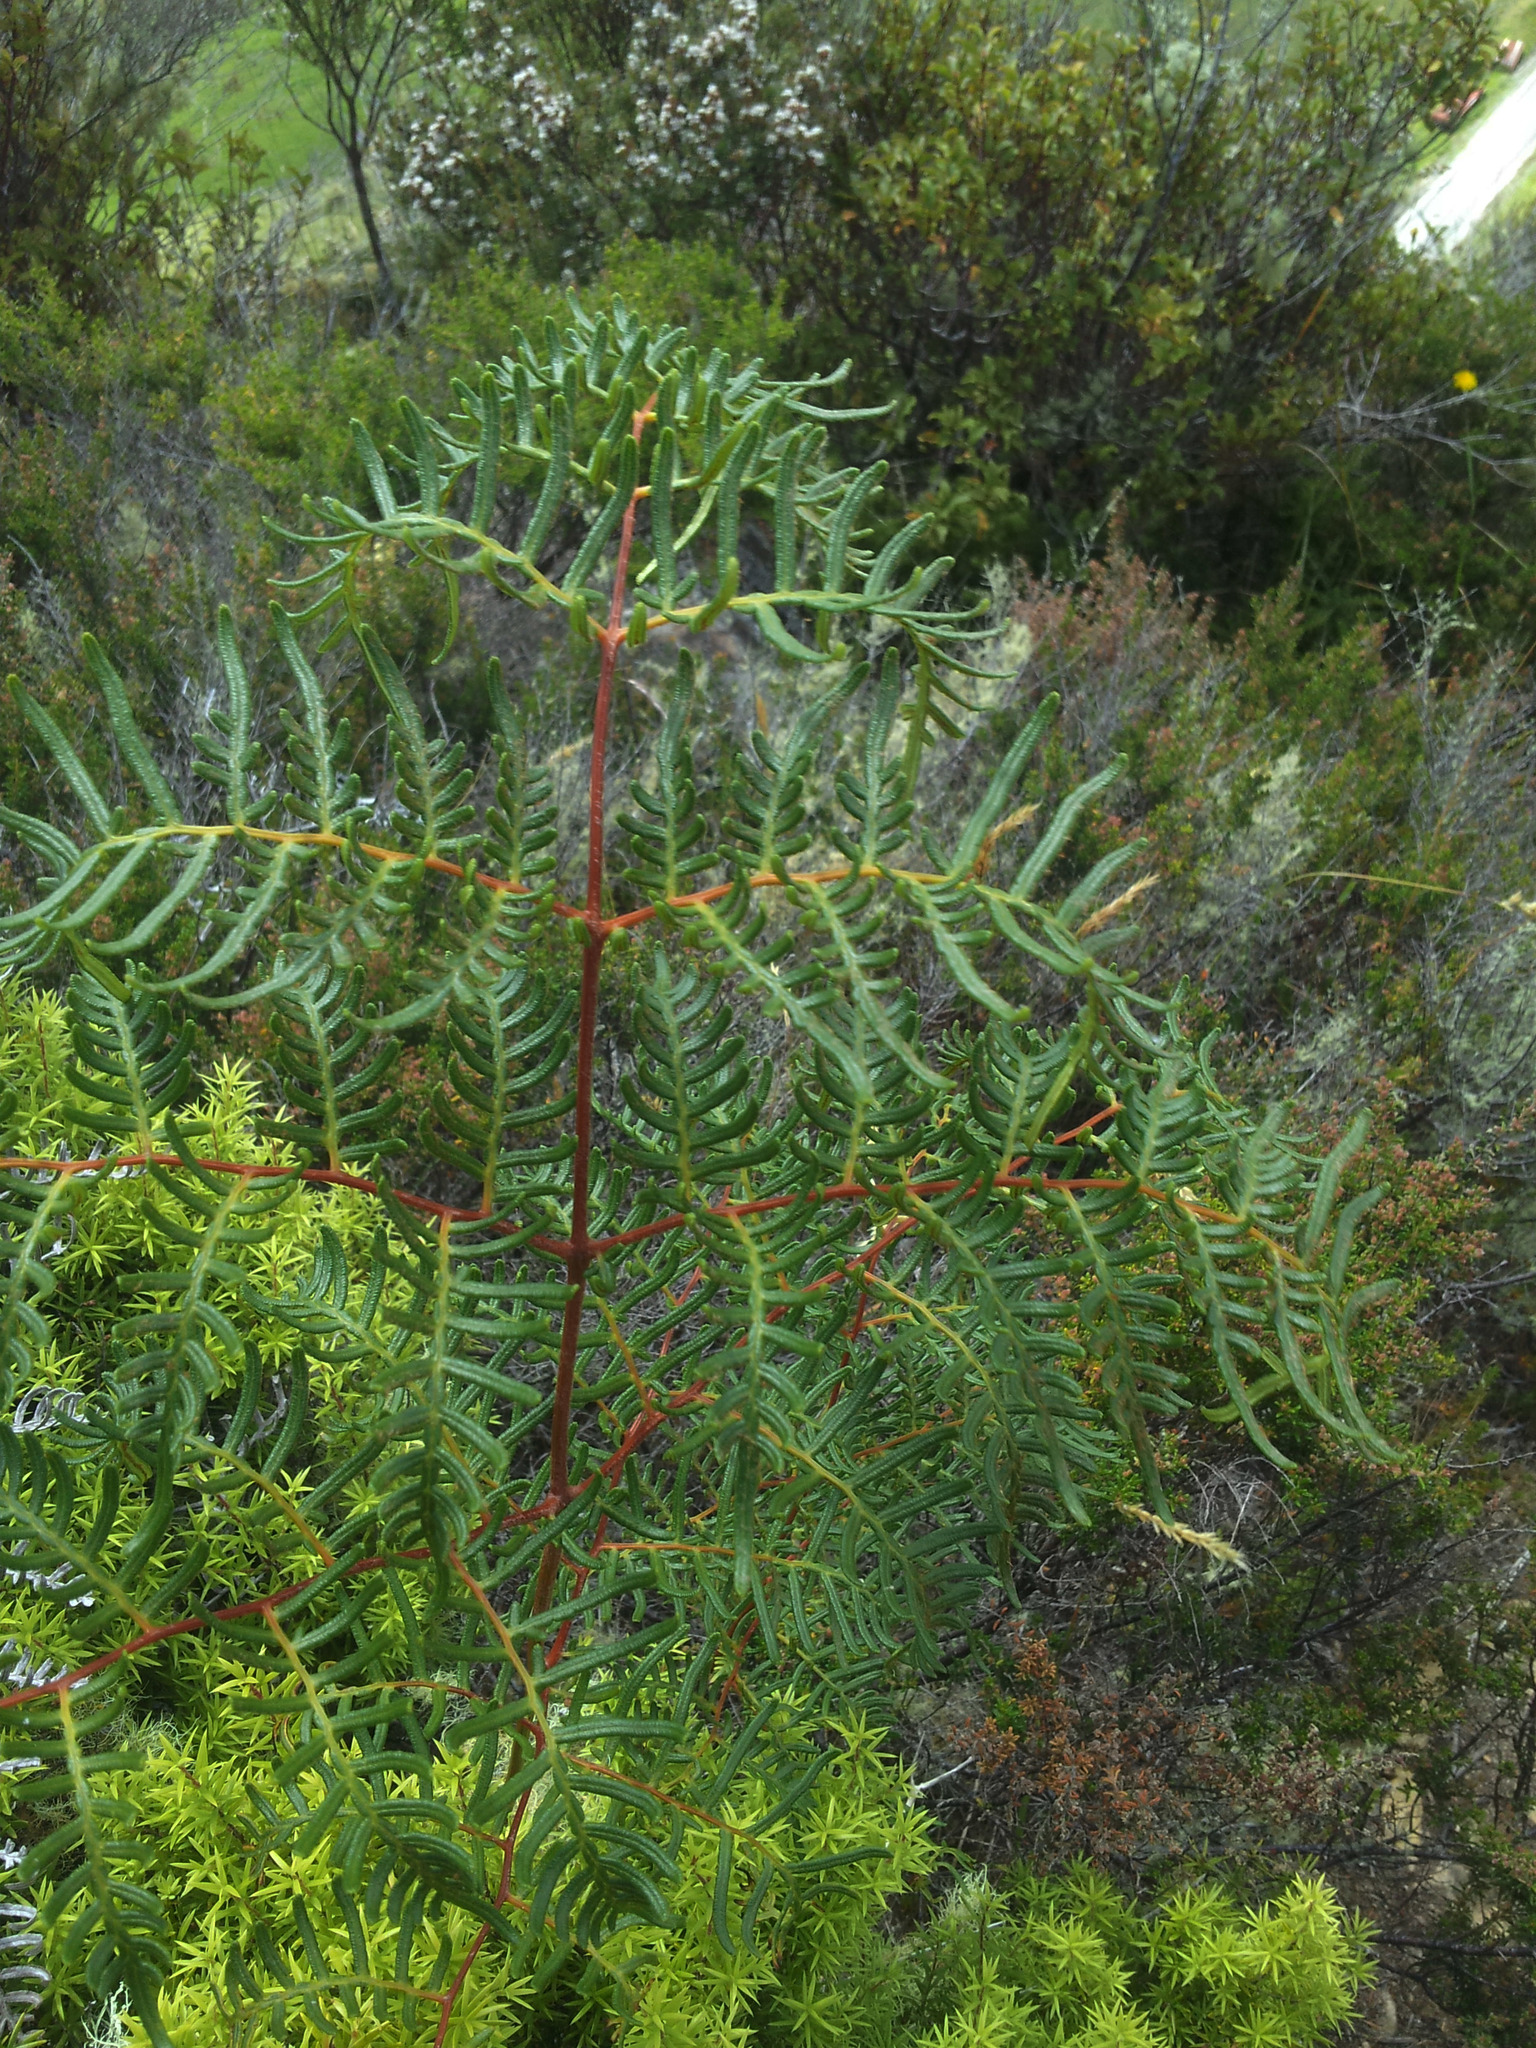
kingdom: Plantae
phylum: Tracheophyta
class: Polypodiopsida
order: Polypodiales
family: Dennstaedtiaceae
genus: Pteridium
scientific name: Pteridium esculentum
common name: Bracken fern
